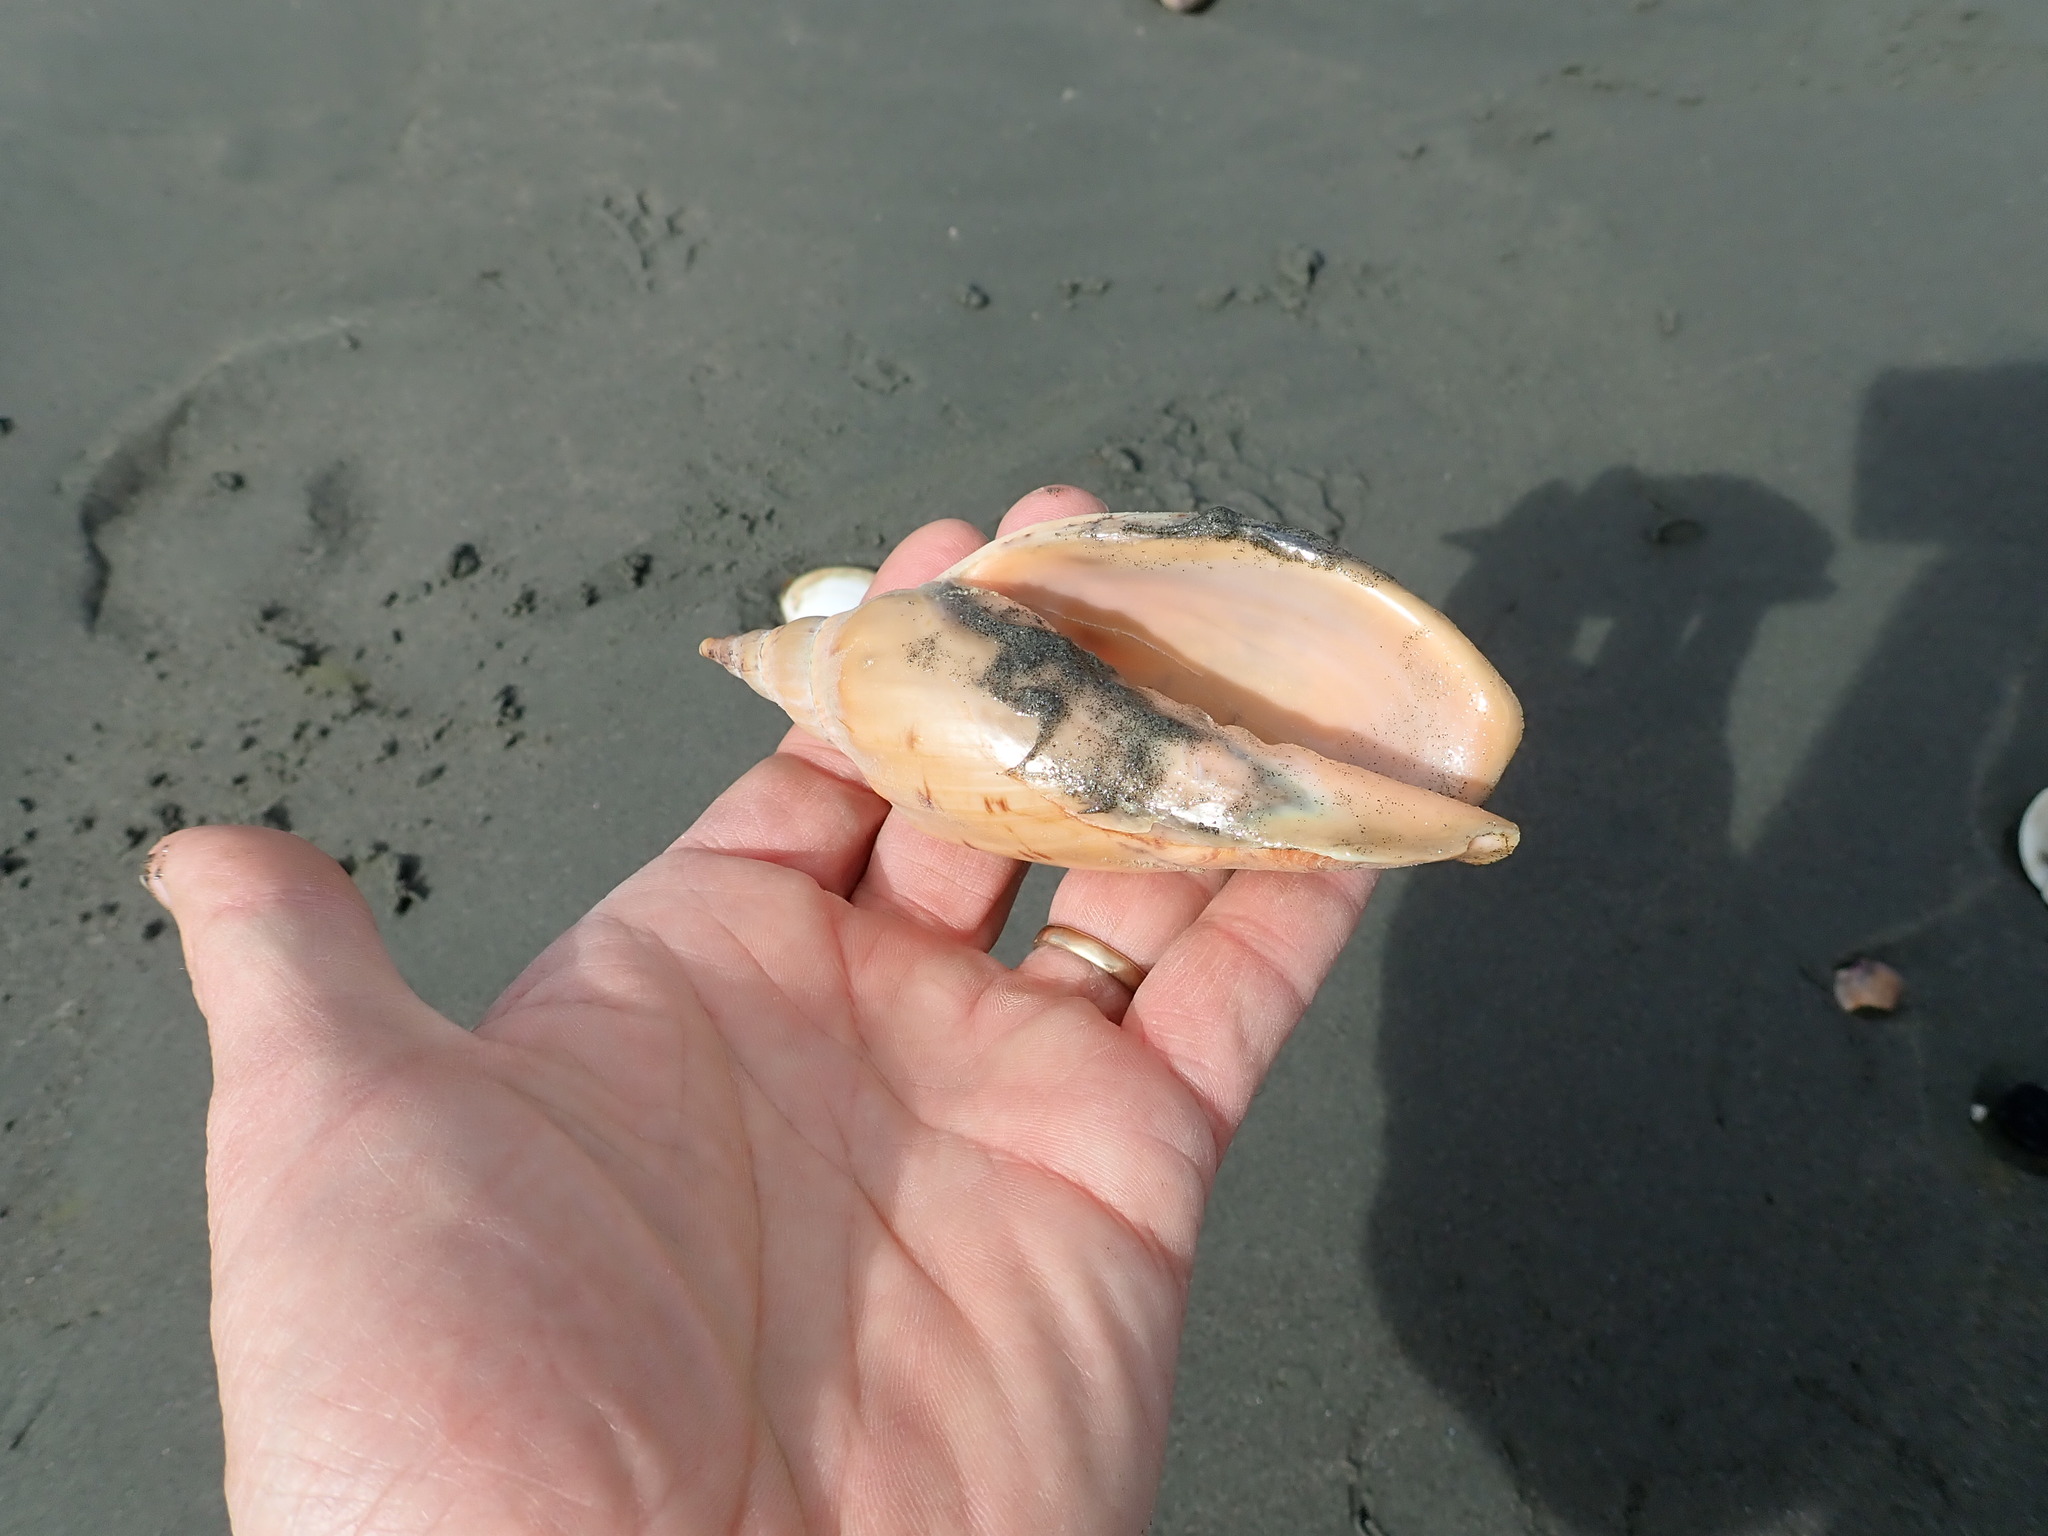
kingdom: Animalia
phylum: Mollusca
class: Gastropoda
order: Neogastropoda
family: Volutidae
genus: Alcithoe
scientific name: Alcithoe arabica
